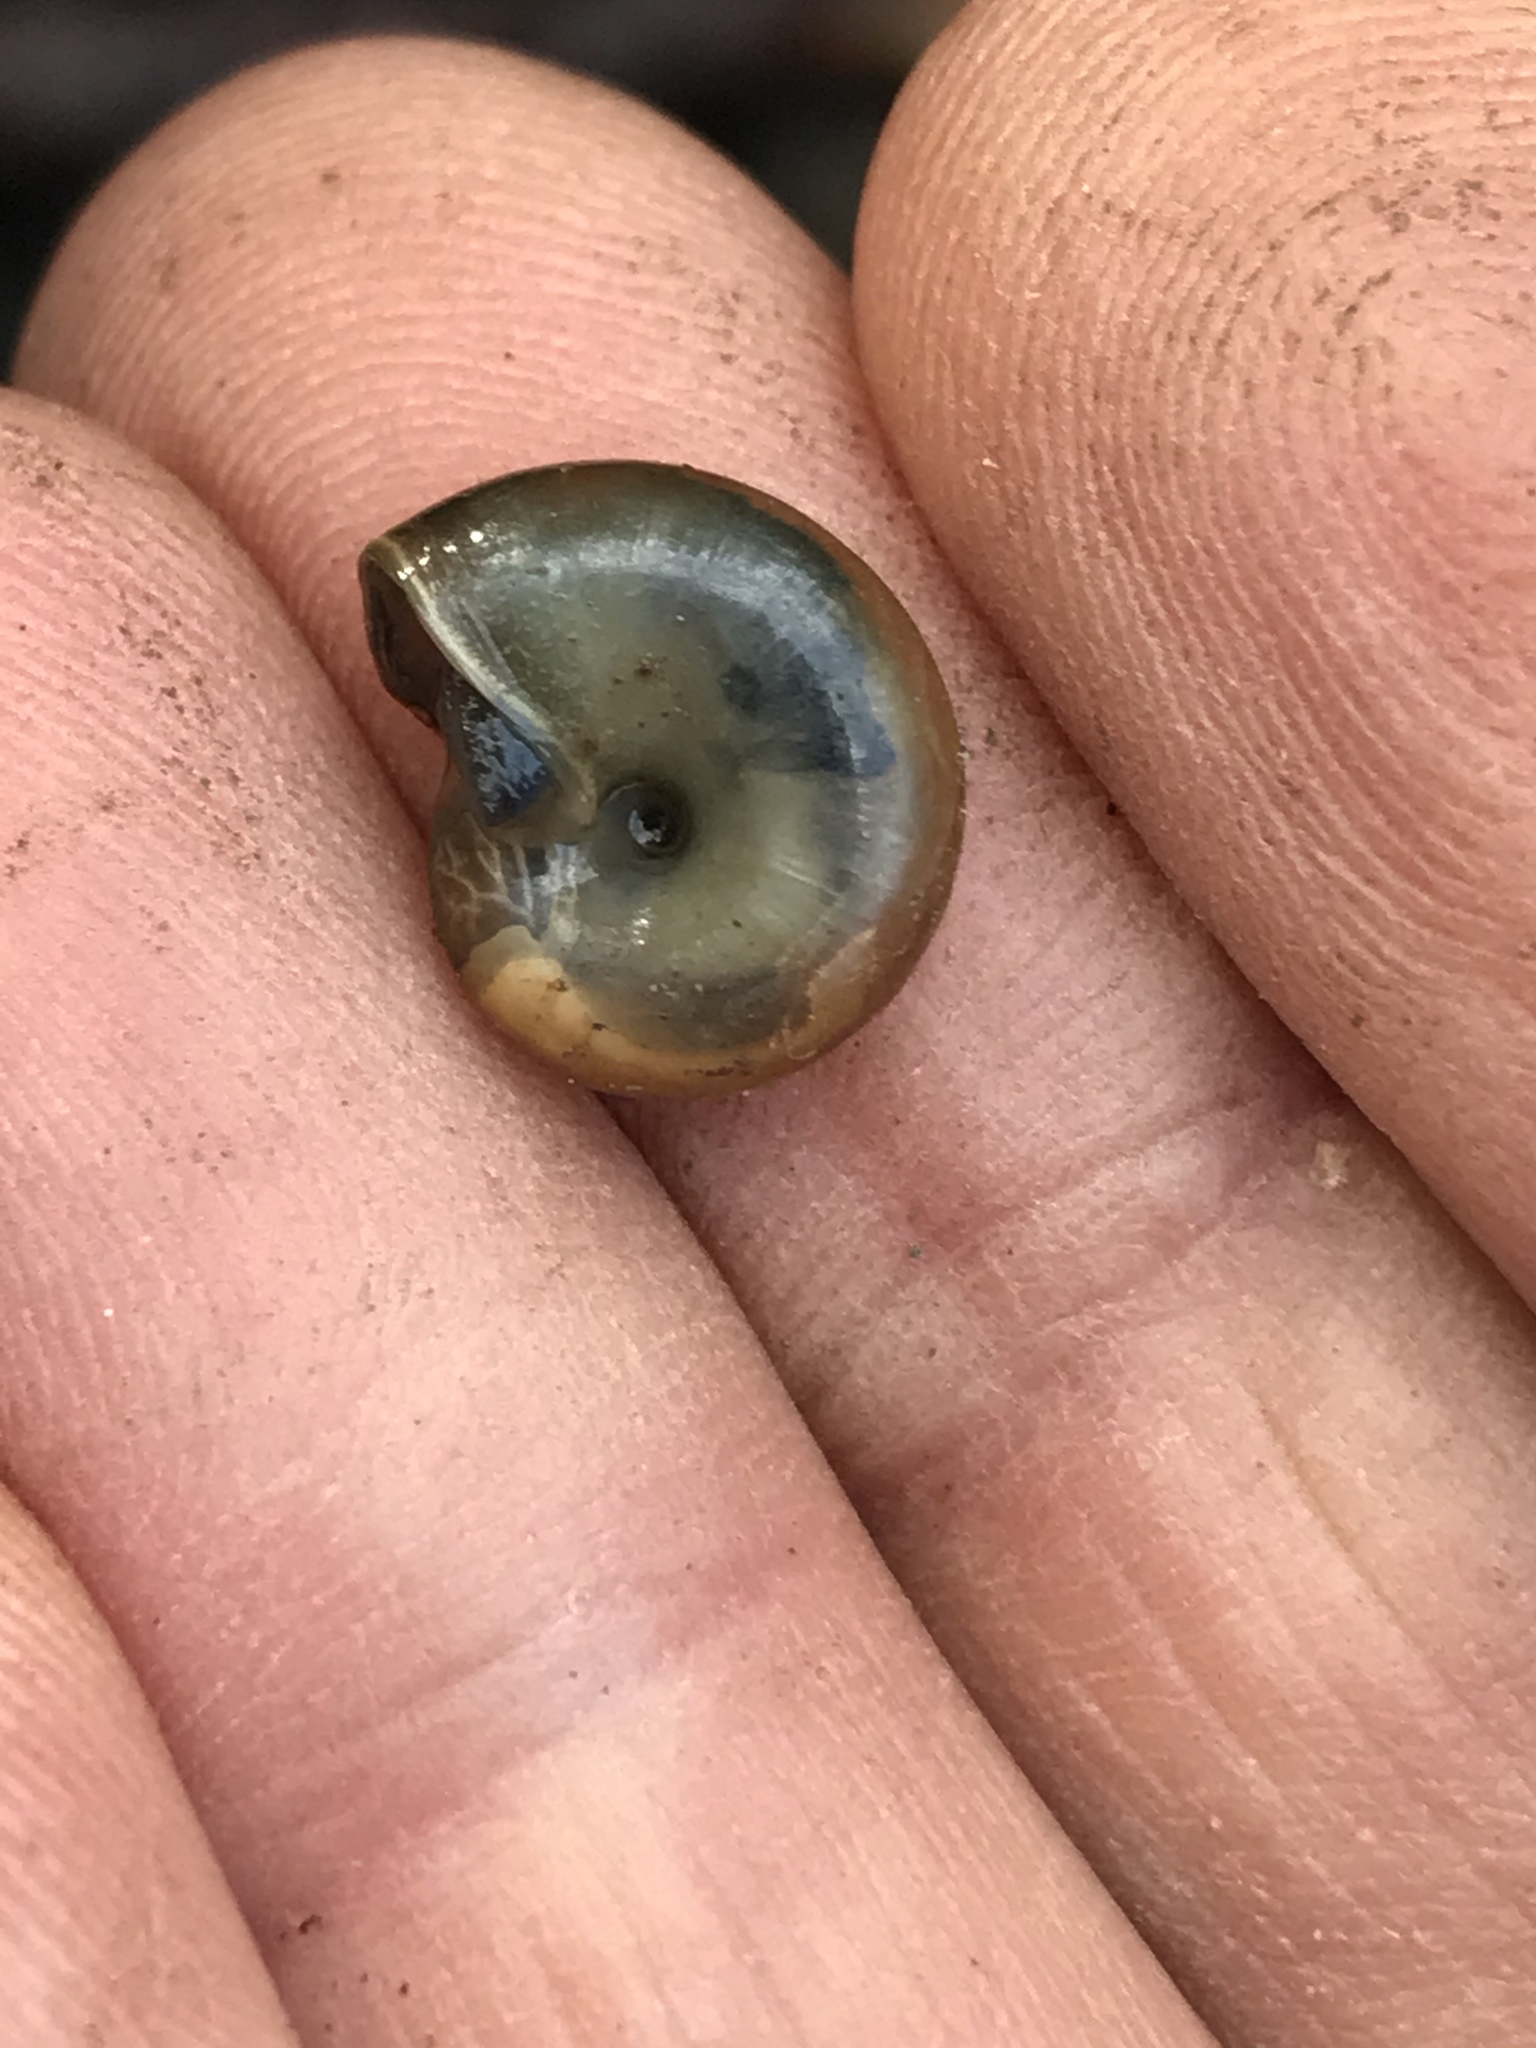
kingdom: Animalia
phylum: Mollusca
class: Gastropoda
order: Stylommatophora
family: Oxychilidae
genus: Oxychilus
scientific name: Oxychilus draparnaudi
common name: Draparnaud's glass snail
